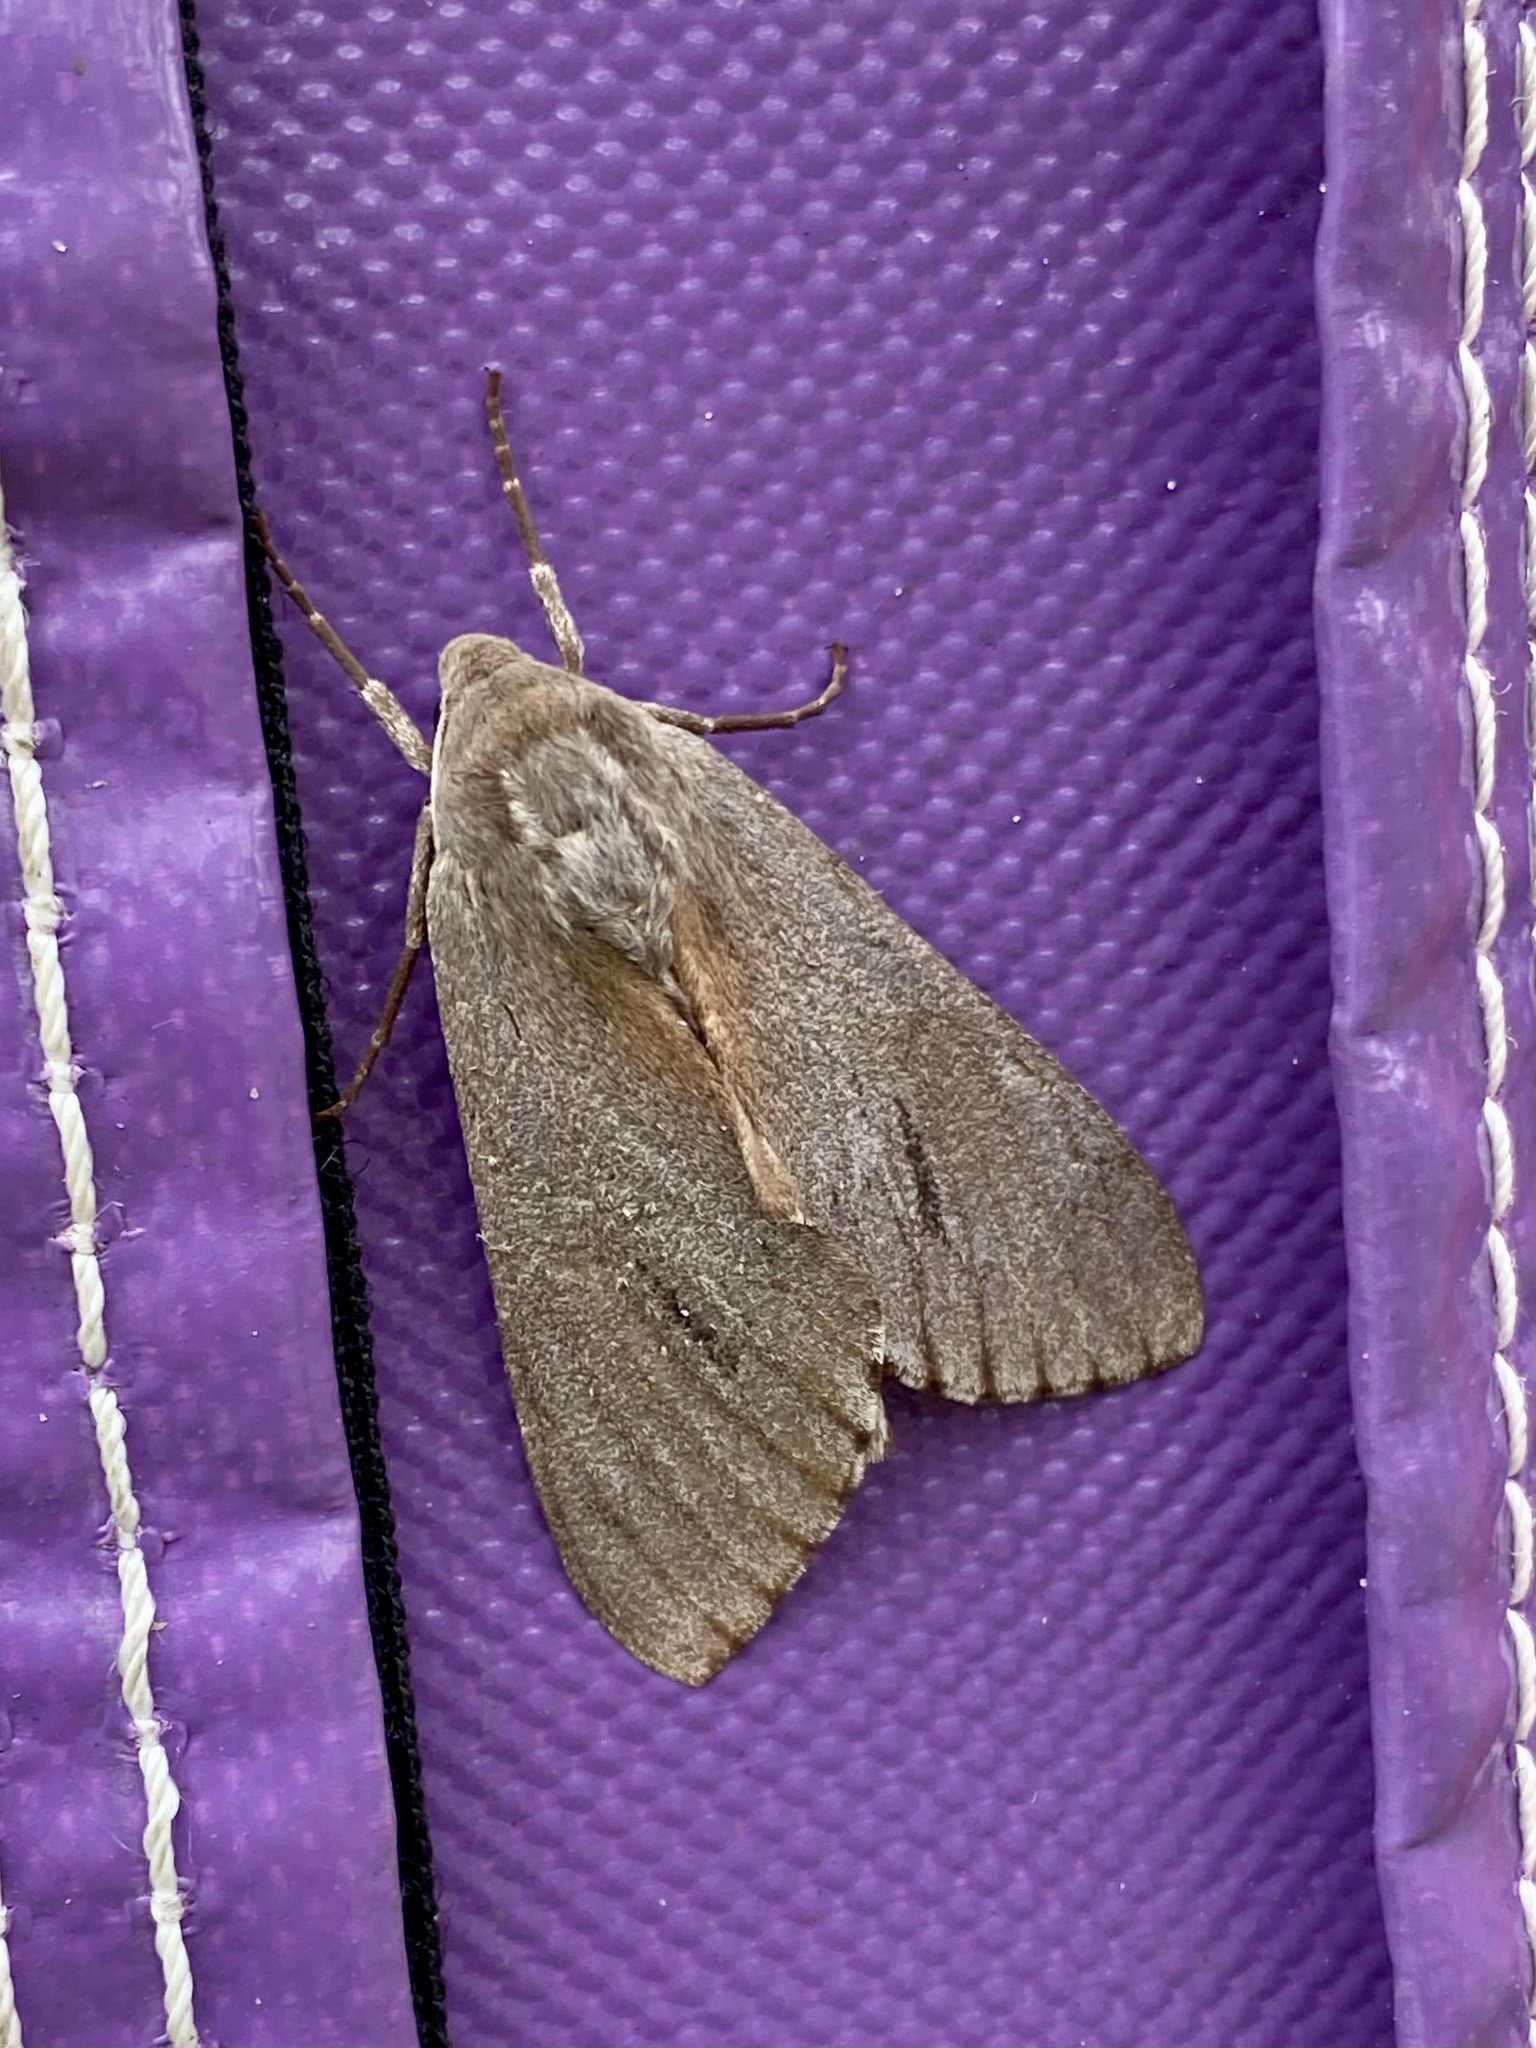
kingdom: Animalia
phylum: Arthropoda
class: Insecta
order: Lepidoptera
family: Sphingidae
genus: Lapara
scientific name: Lapara coniferarum
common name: Southern pine sphinx
